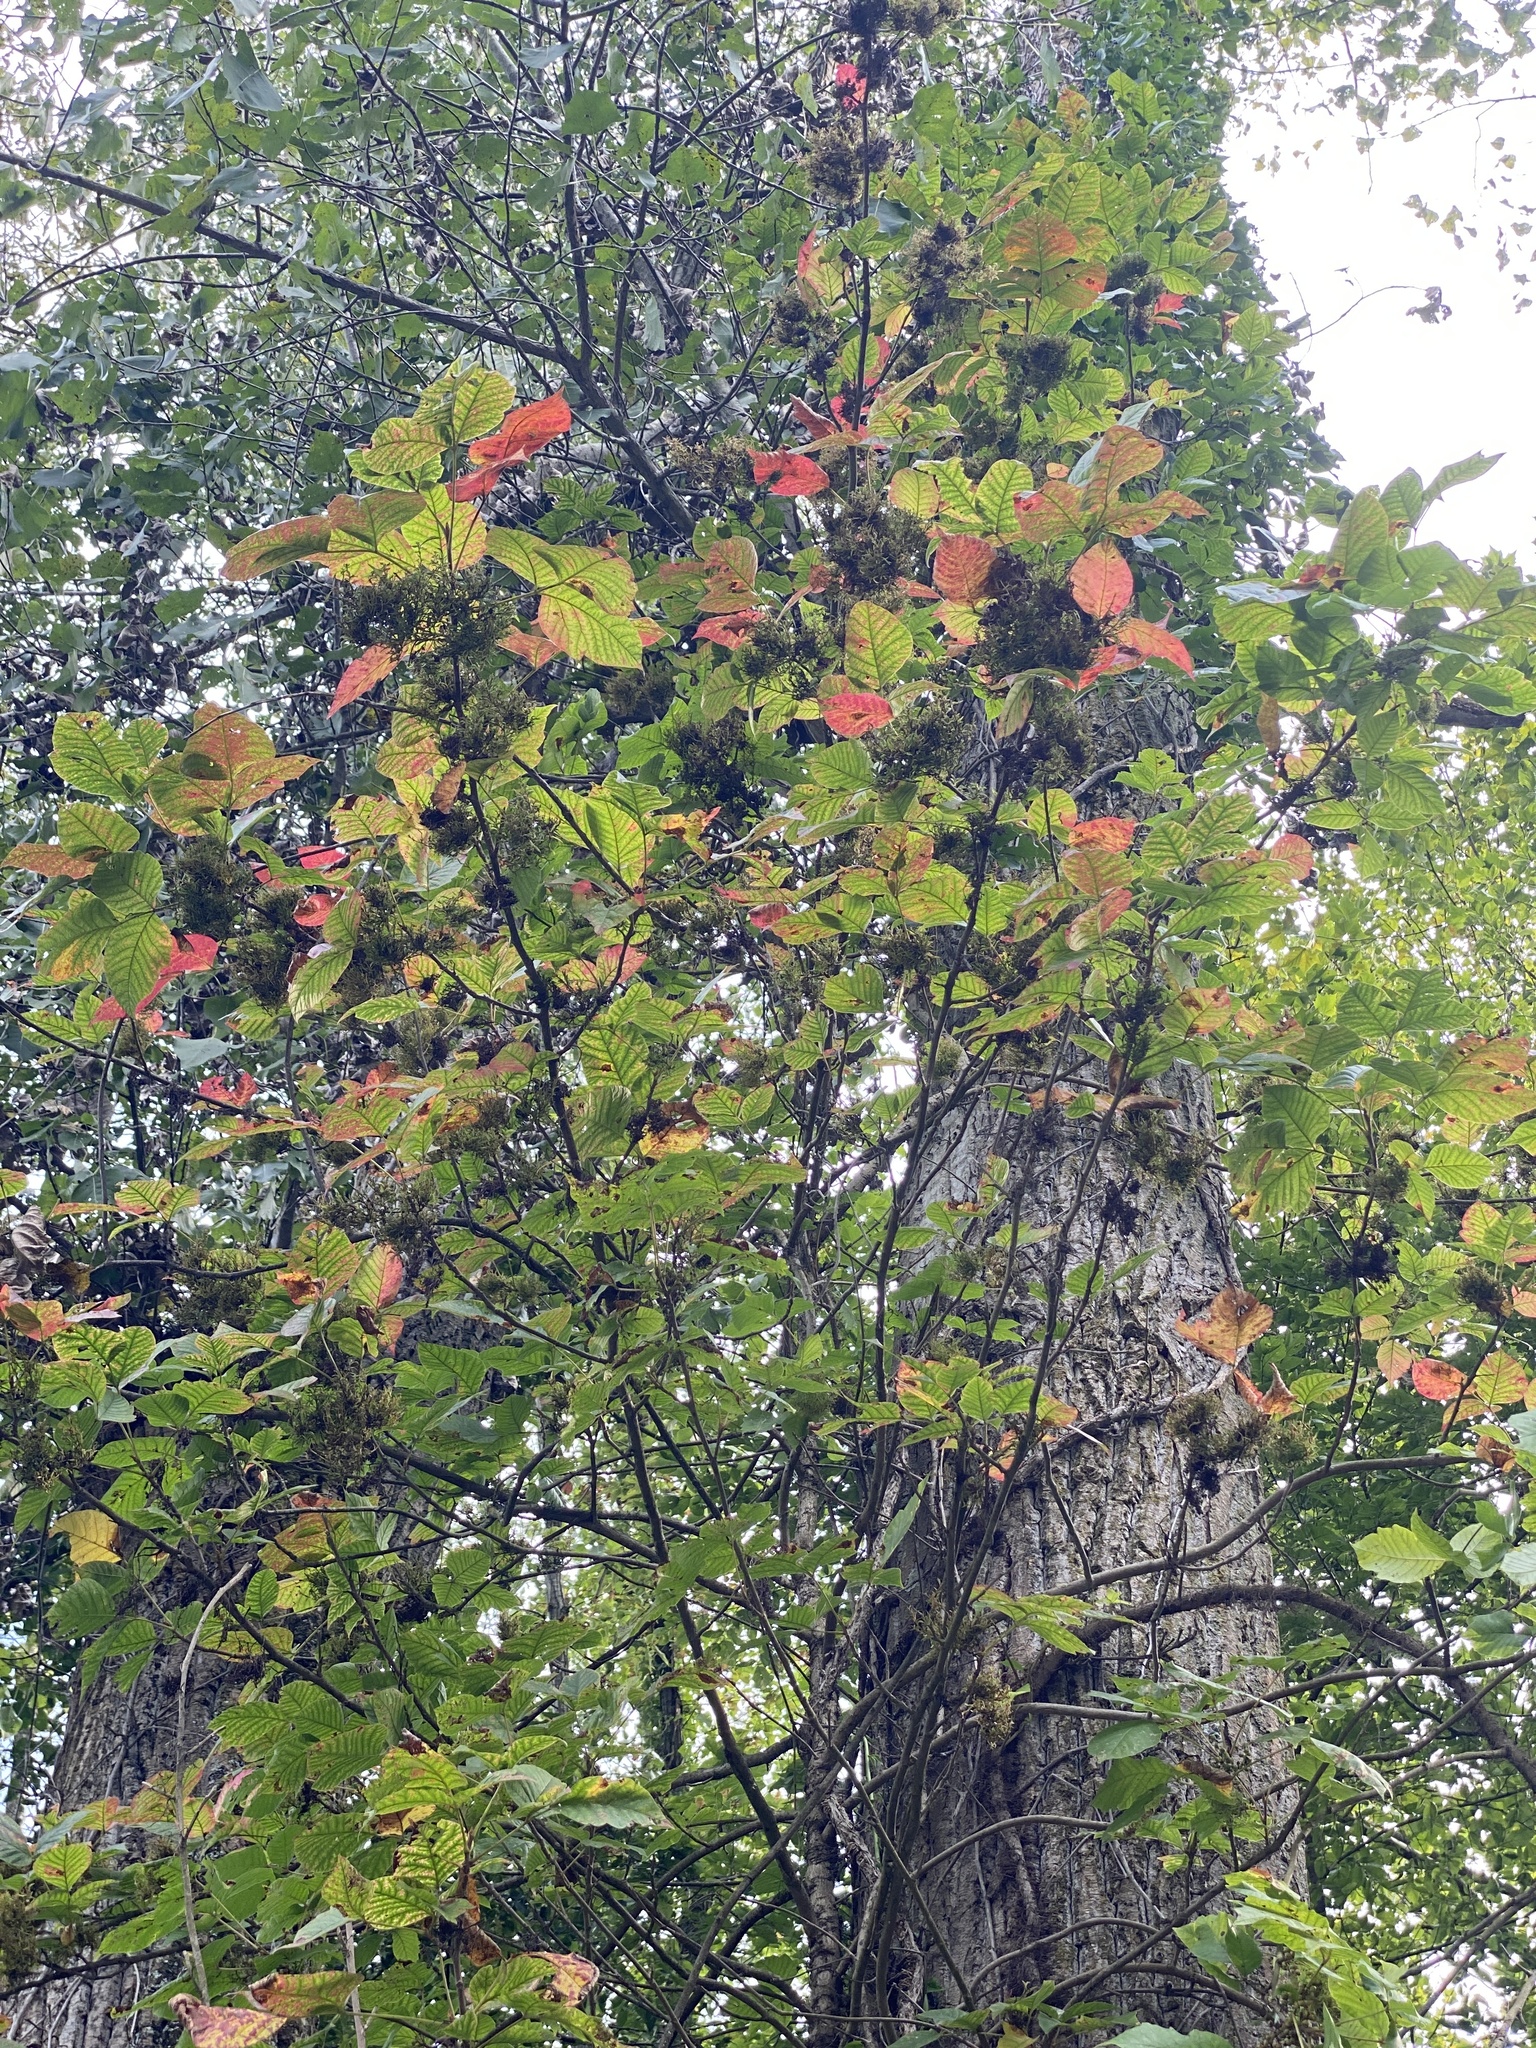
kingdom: Plantae
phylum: Tracheophyta
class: Magnoliopsida
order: Sapindales
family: Anacardiaceae
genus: Toxicodendron
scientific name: Toxicodendron radicans
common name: Poison ivy
